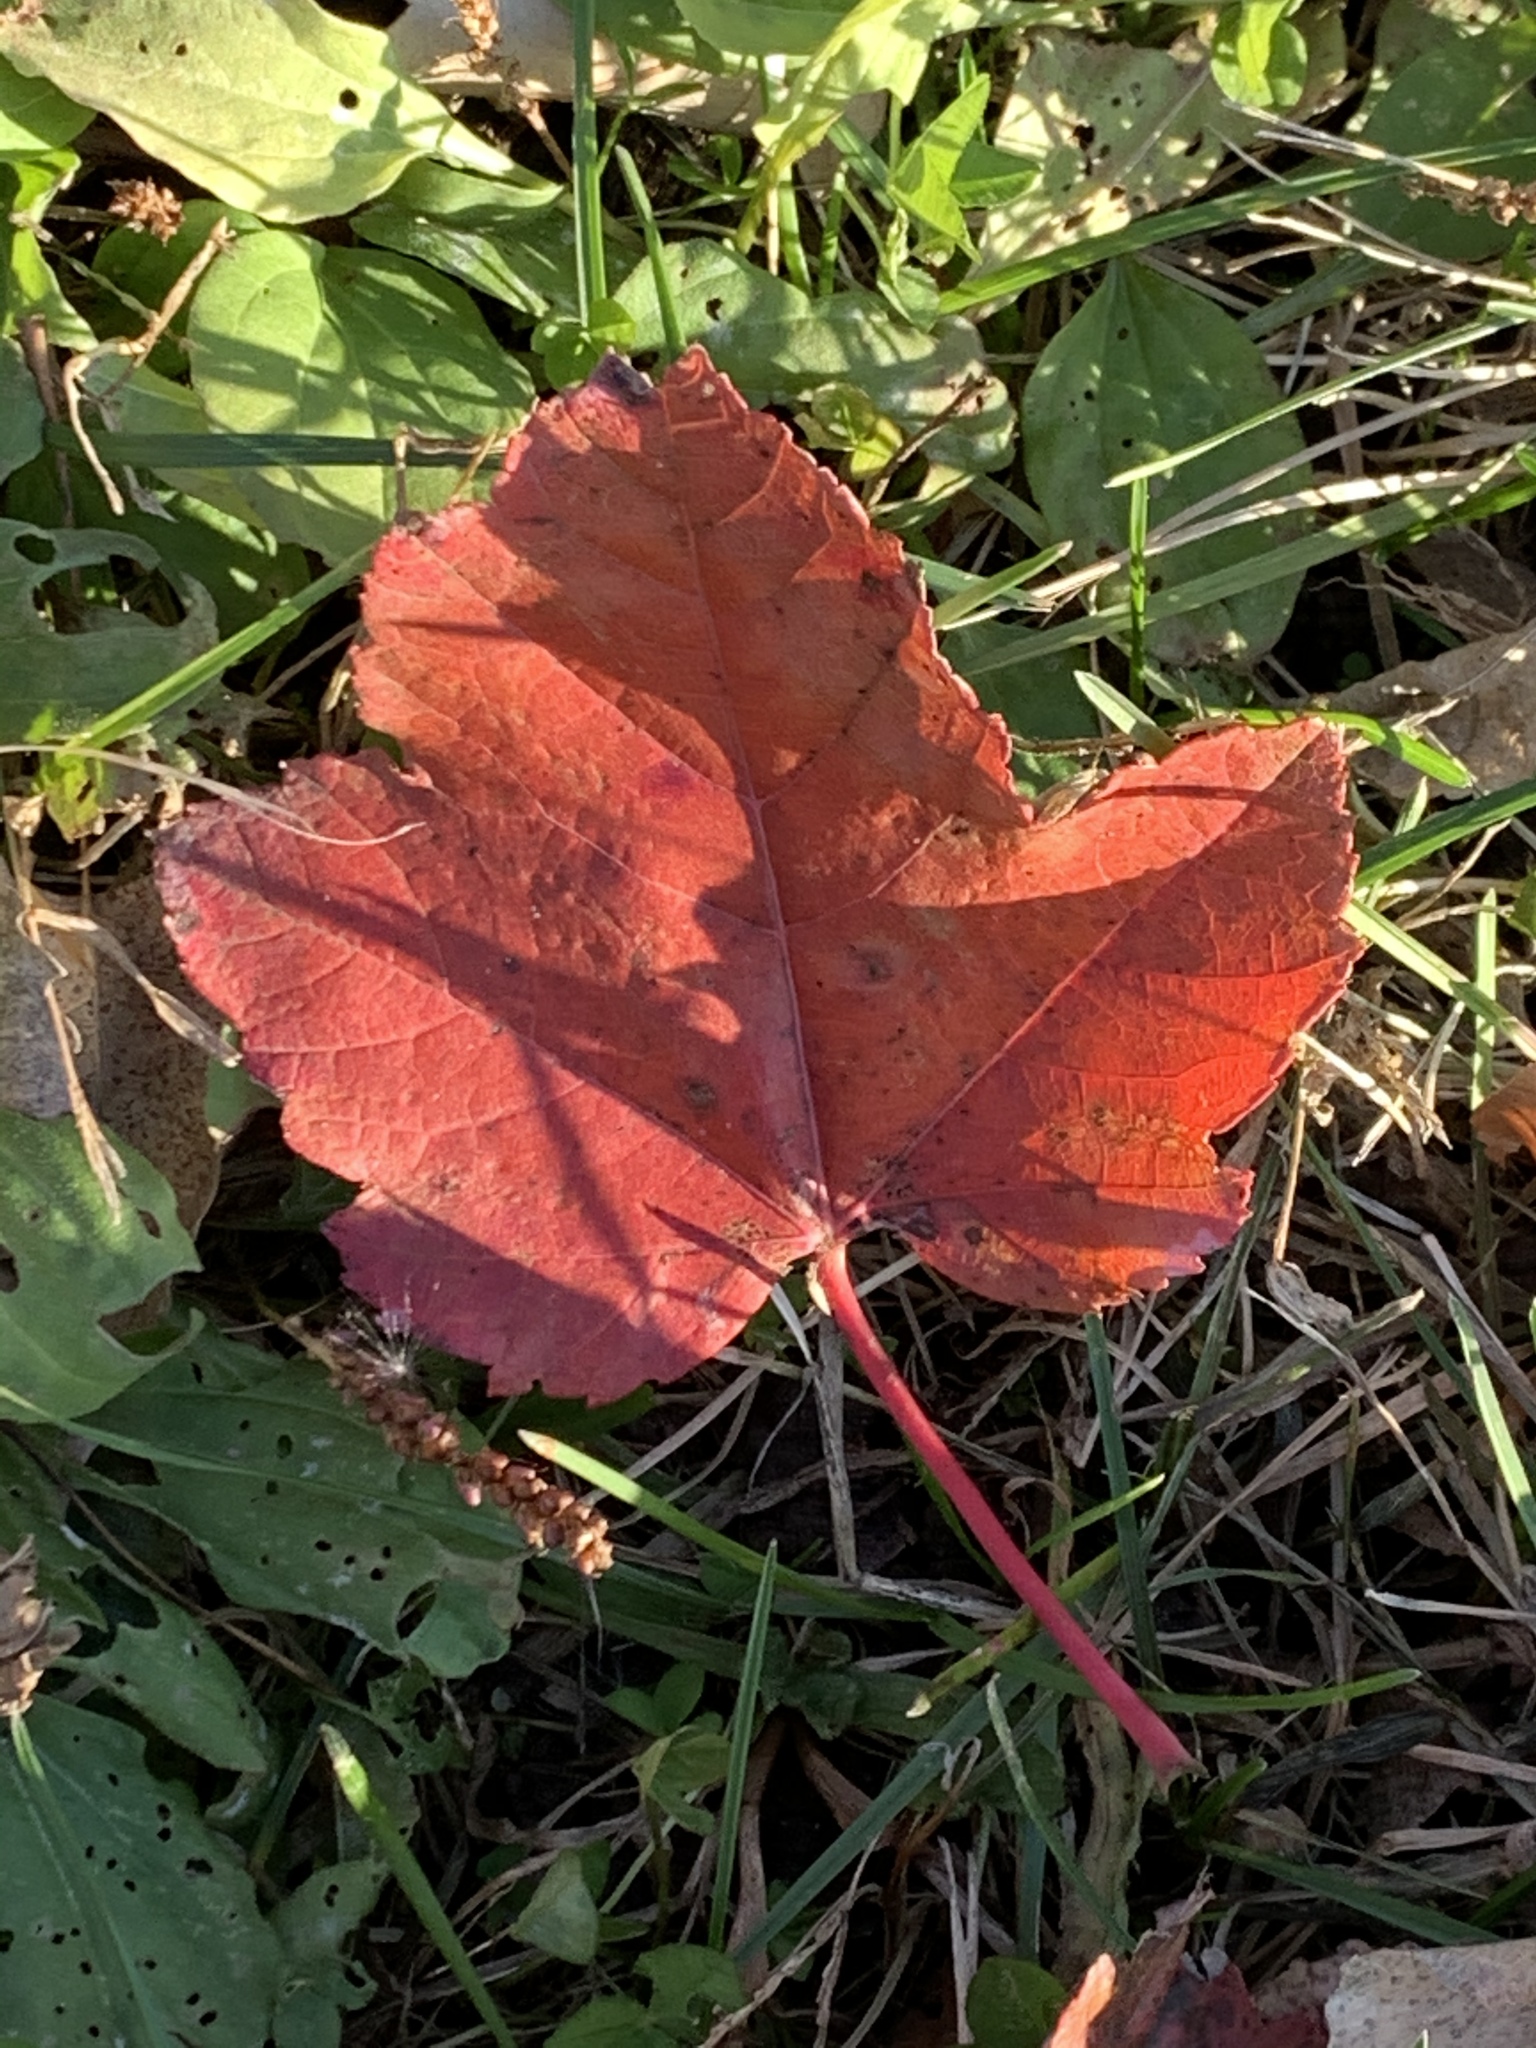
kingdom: Plantae
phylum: Tracheophyta
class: Magnoliopsida
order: Sapindales
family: Sapindaceae
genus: Acer
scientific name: Acer rubrum
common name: Red maple
